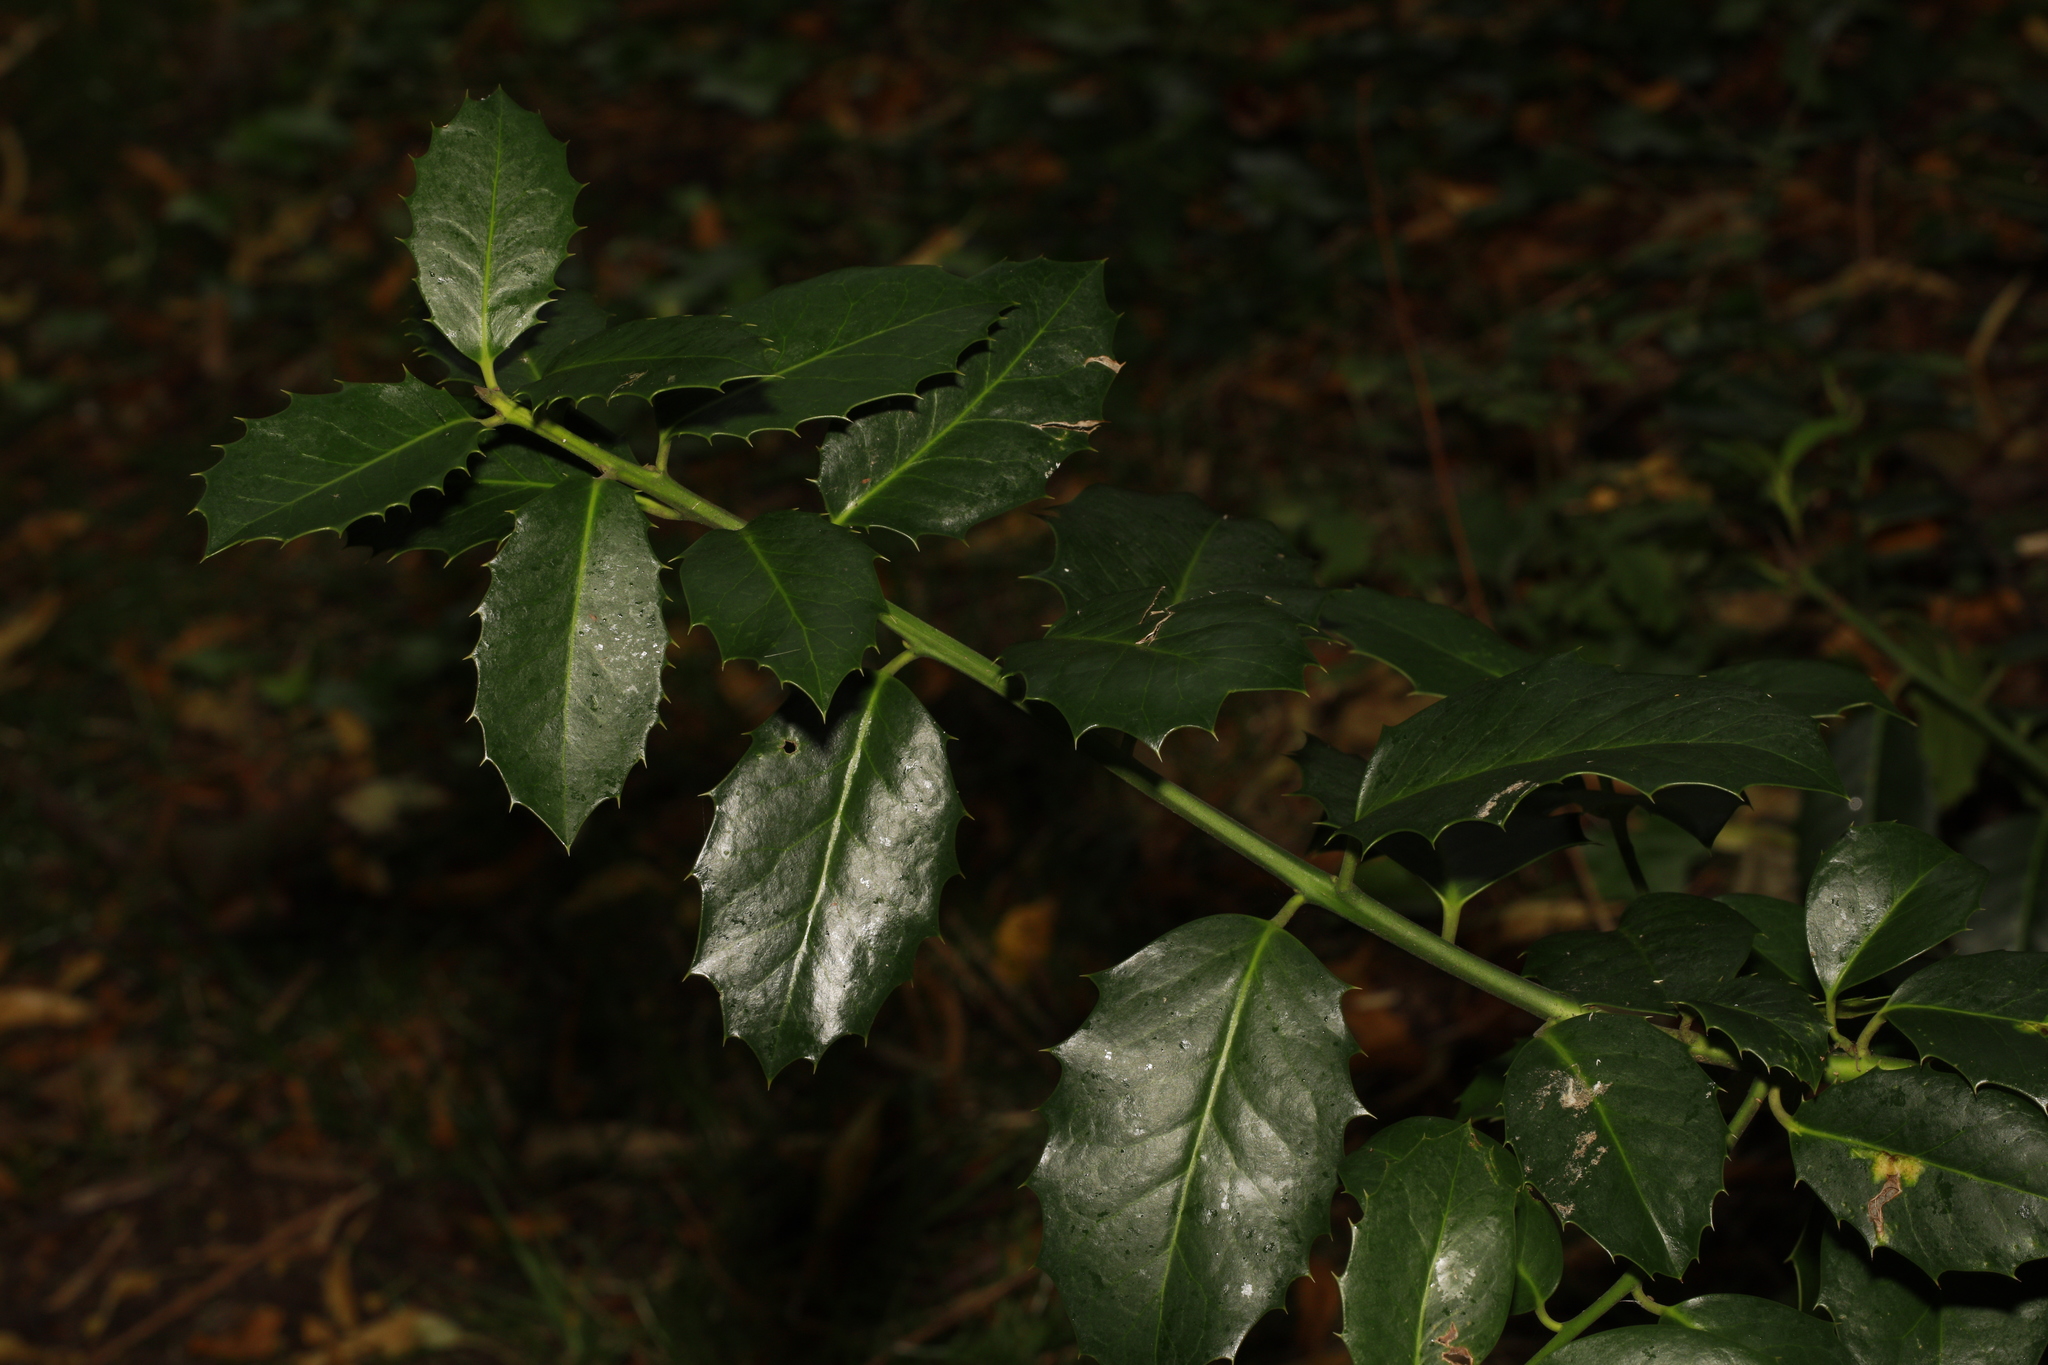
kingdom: Plantae
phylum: Tracheophyta
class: Magnoliopsida
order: Aquifoliales
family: Aquifoliaceae
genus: Ilex
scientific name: Ilex aquifolium
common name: English holly
